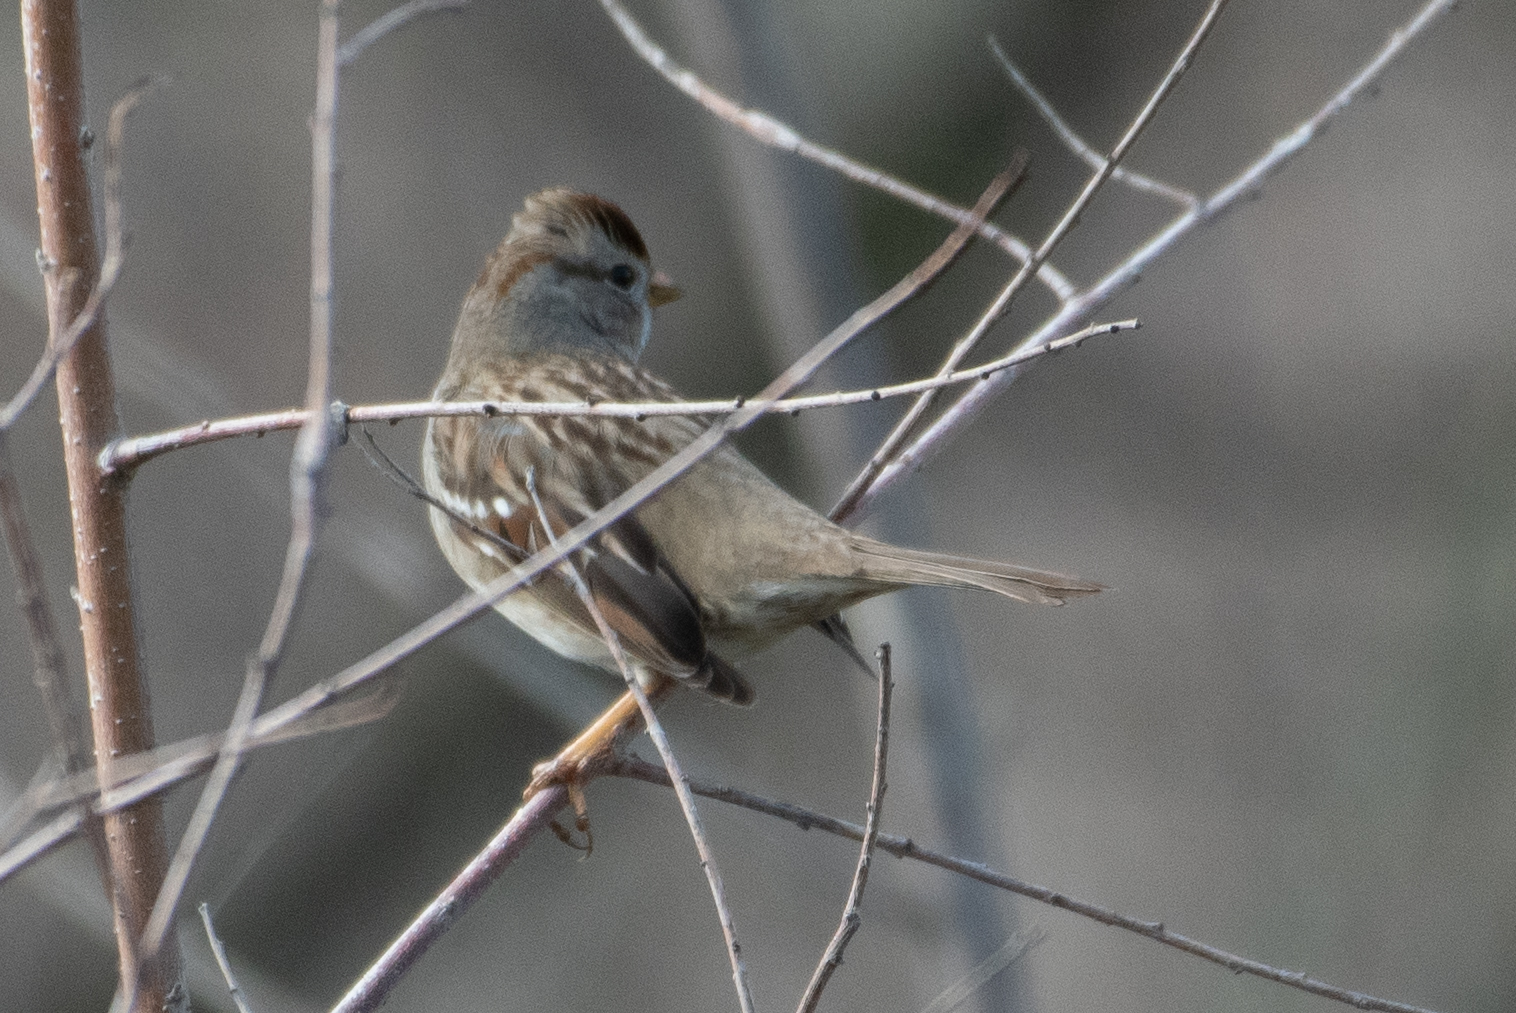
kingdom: Animalia
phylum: Chordata
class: Aves
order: Passeriformes
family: Passerellidae
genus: Zonotrichia
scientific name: Zonotrichia leucophrys
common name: White-crowned sparrow
